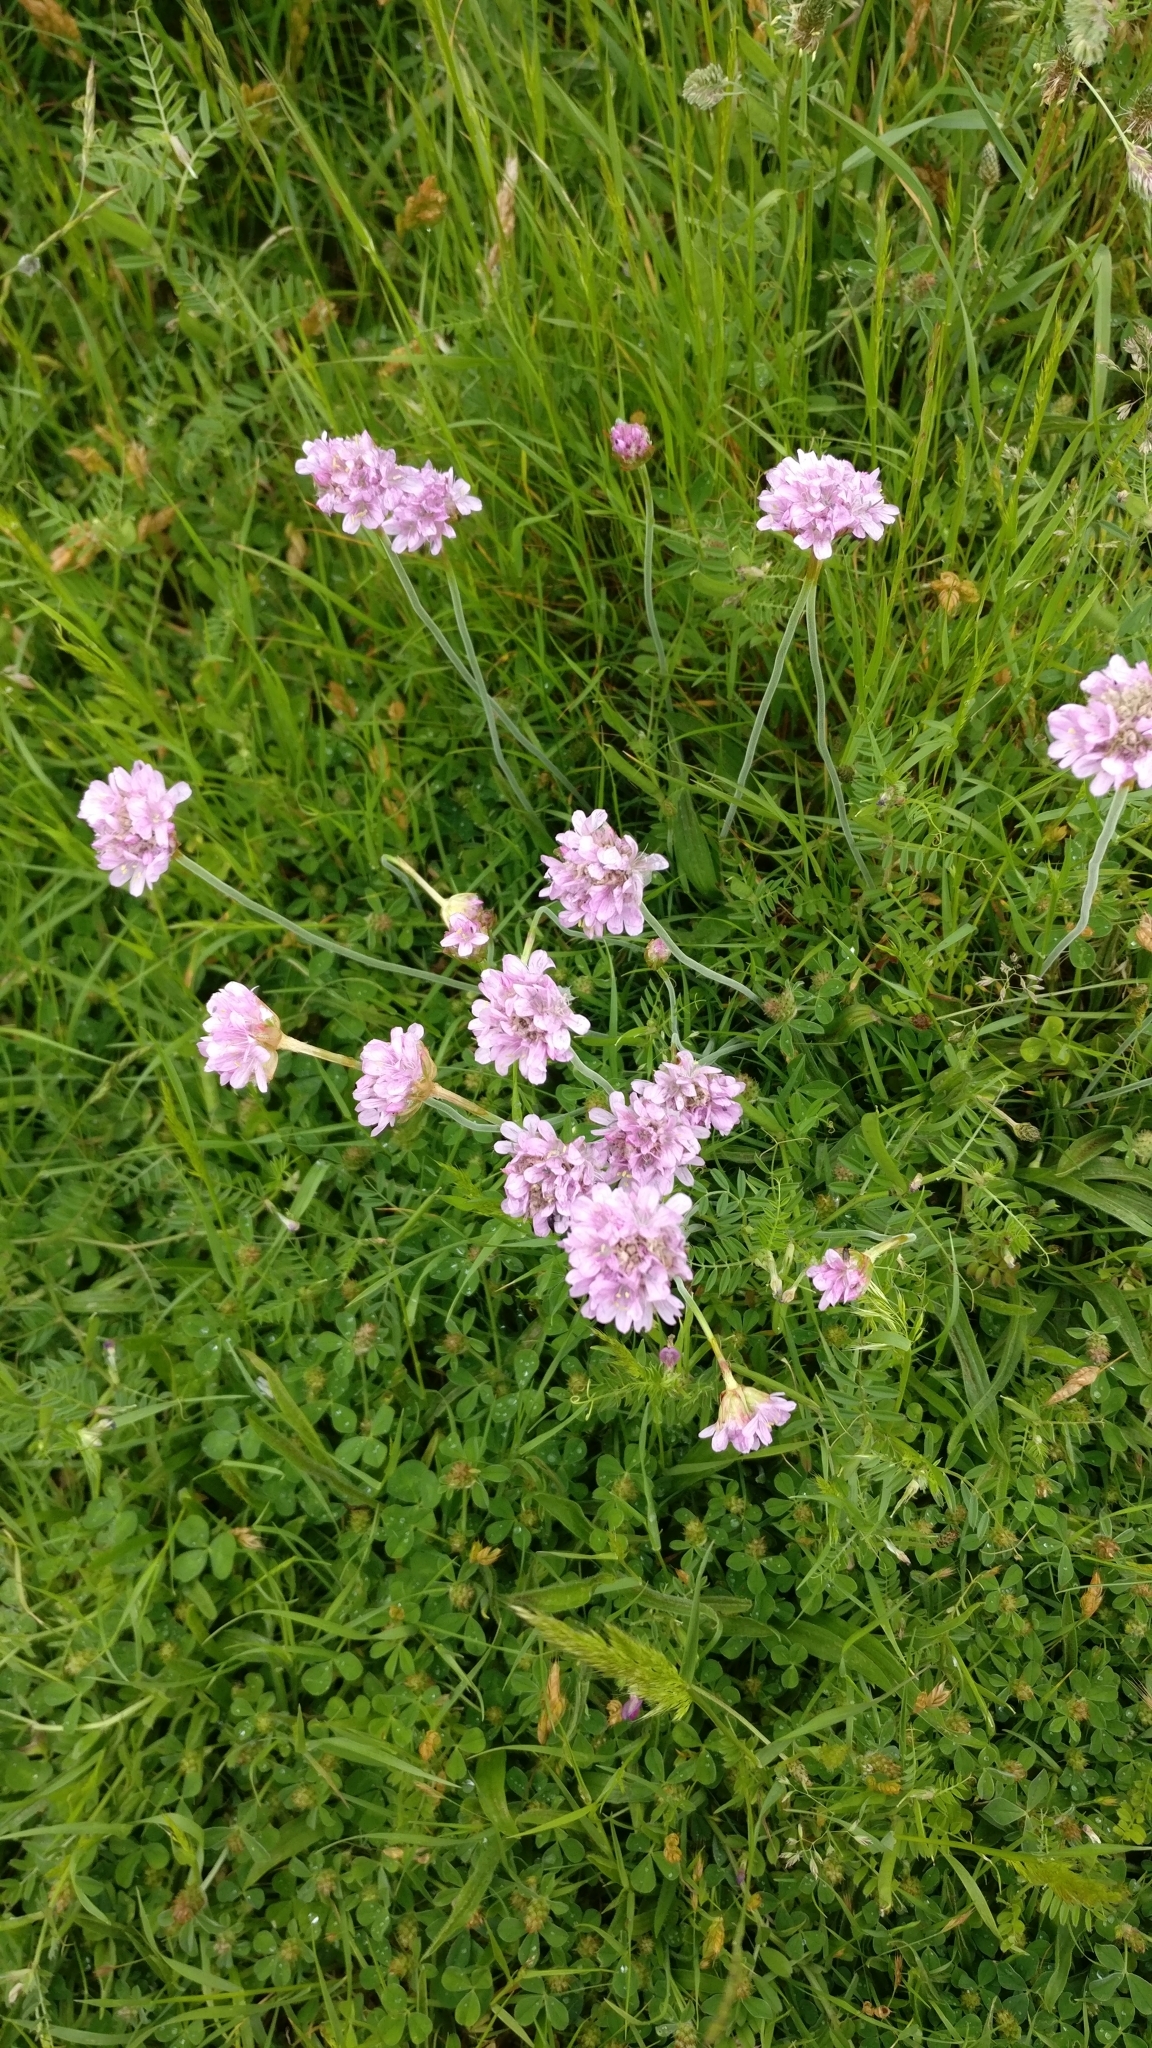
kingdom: Plantae
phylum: Tracheophyta
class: Magnoliopsida
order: Caryophyllales
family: Plumbaginaceae
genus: Armeria
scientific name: Armeria maritima
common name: Thrift
